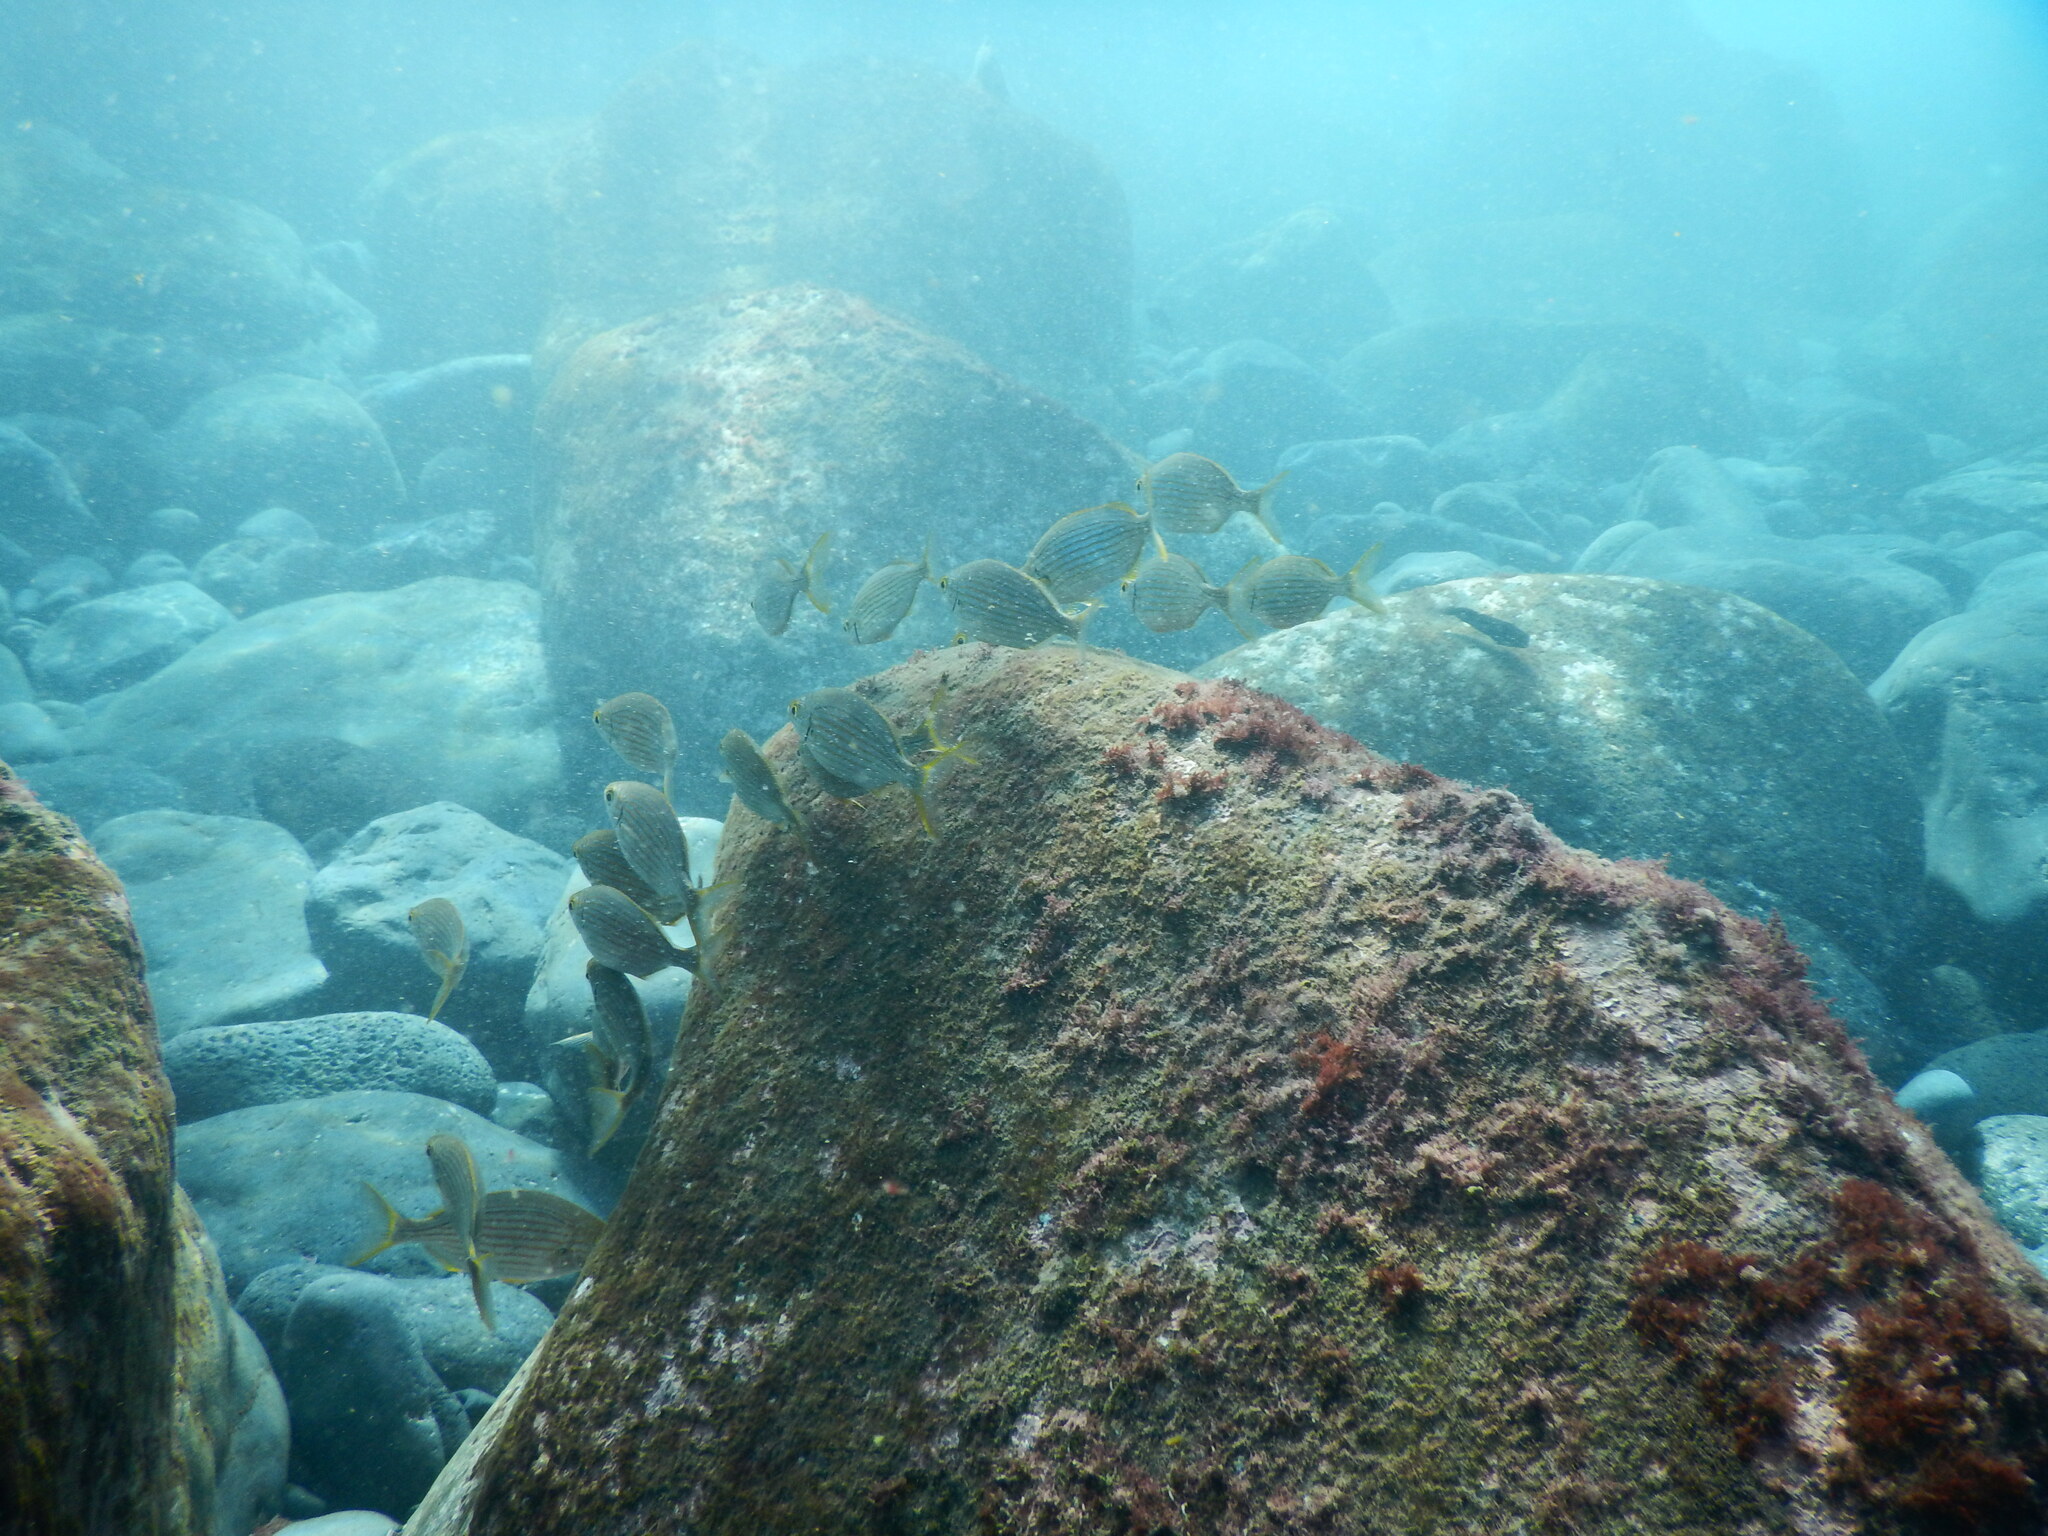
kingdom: Animalia
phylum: Chordata
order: Perciformes
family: Sparidae
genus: Sarpa
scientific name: Sarpa salpa
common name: Salema
